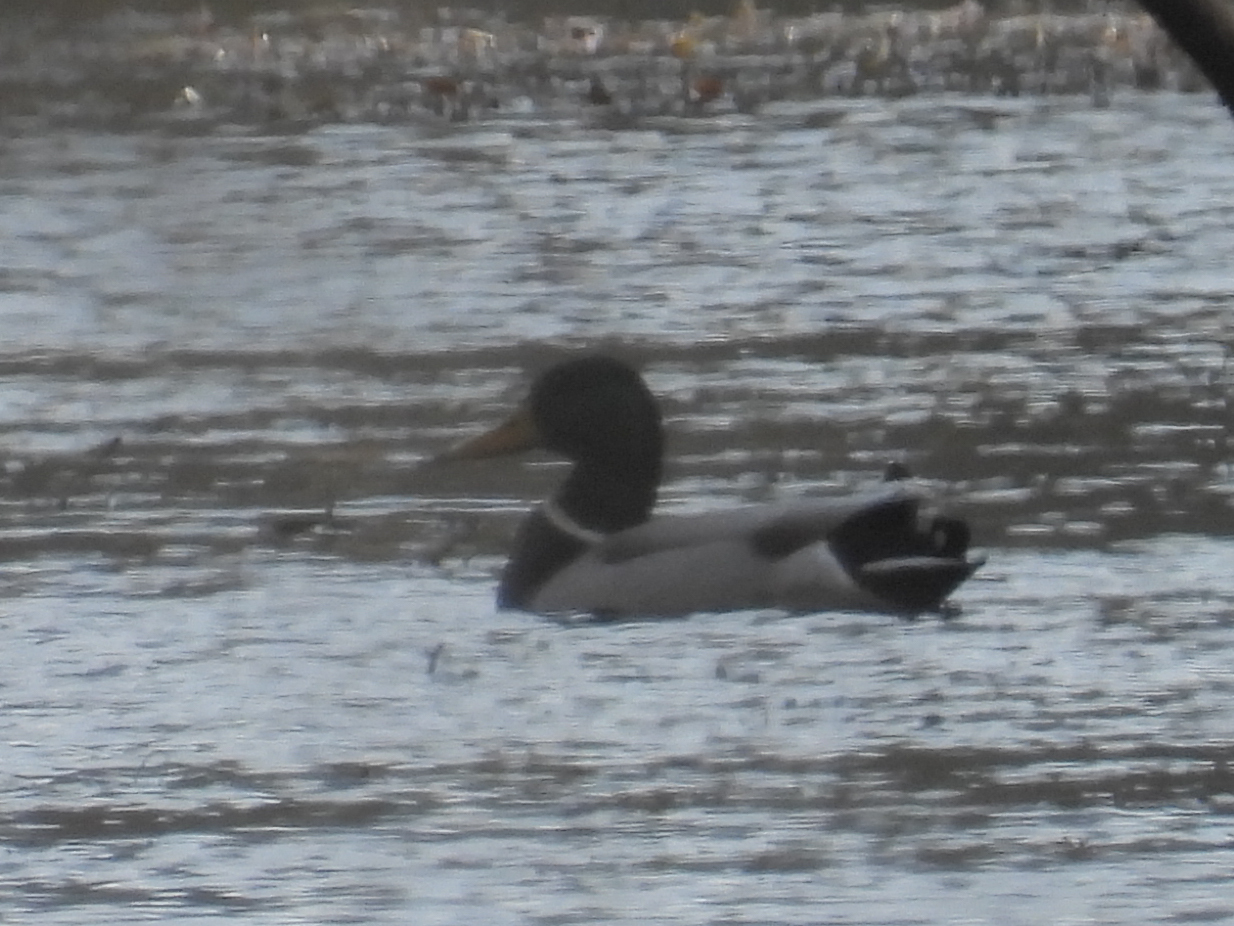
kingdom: Animalia
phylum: Chordata
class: Aves
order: Anseriformes
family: Anatidae
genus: Anas
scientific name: Anas platyrhynchos
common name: Mallard
